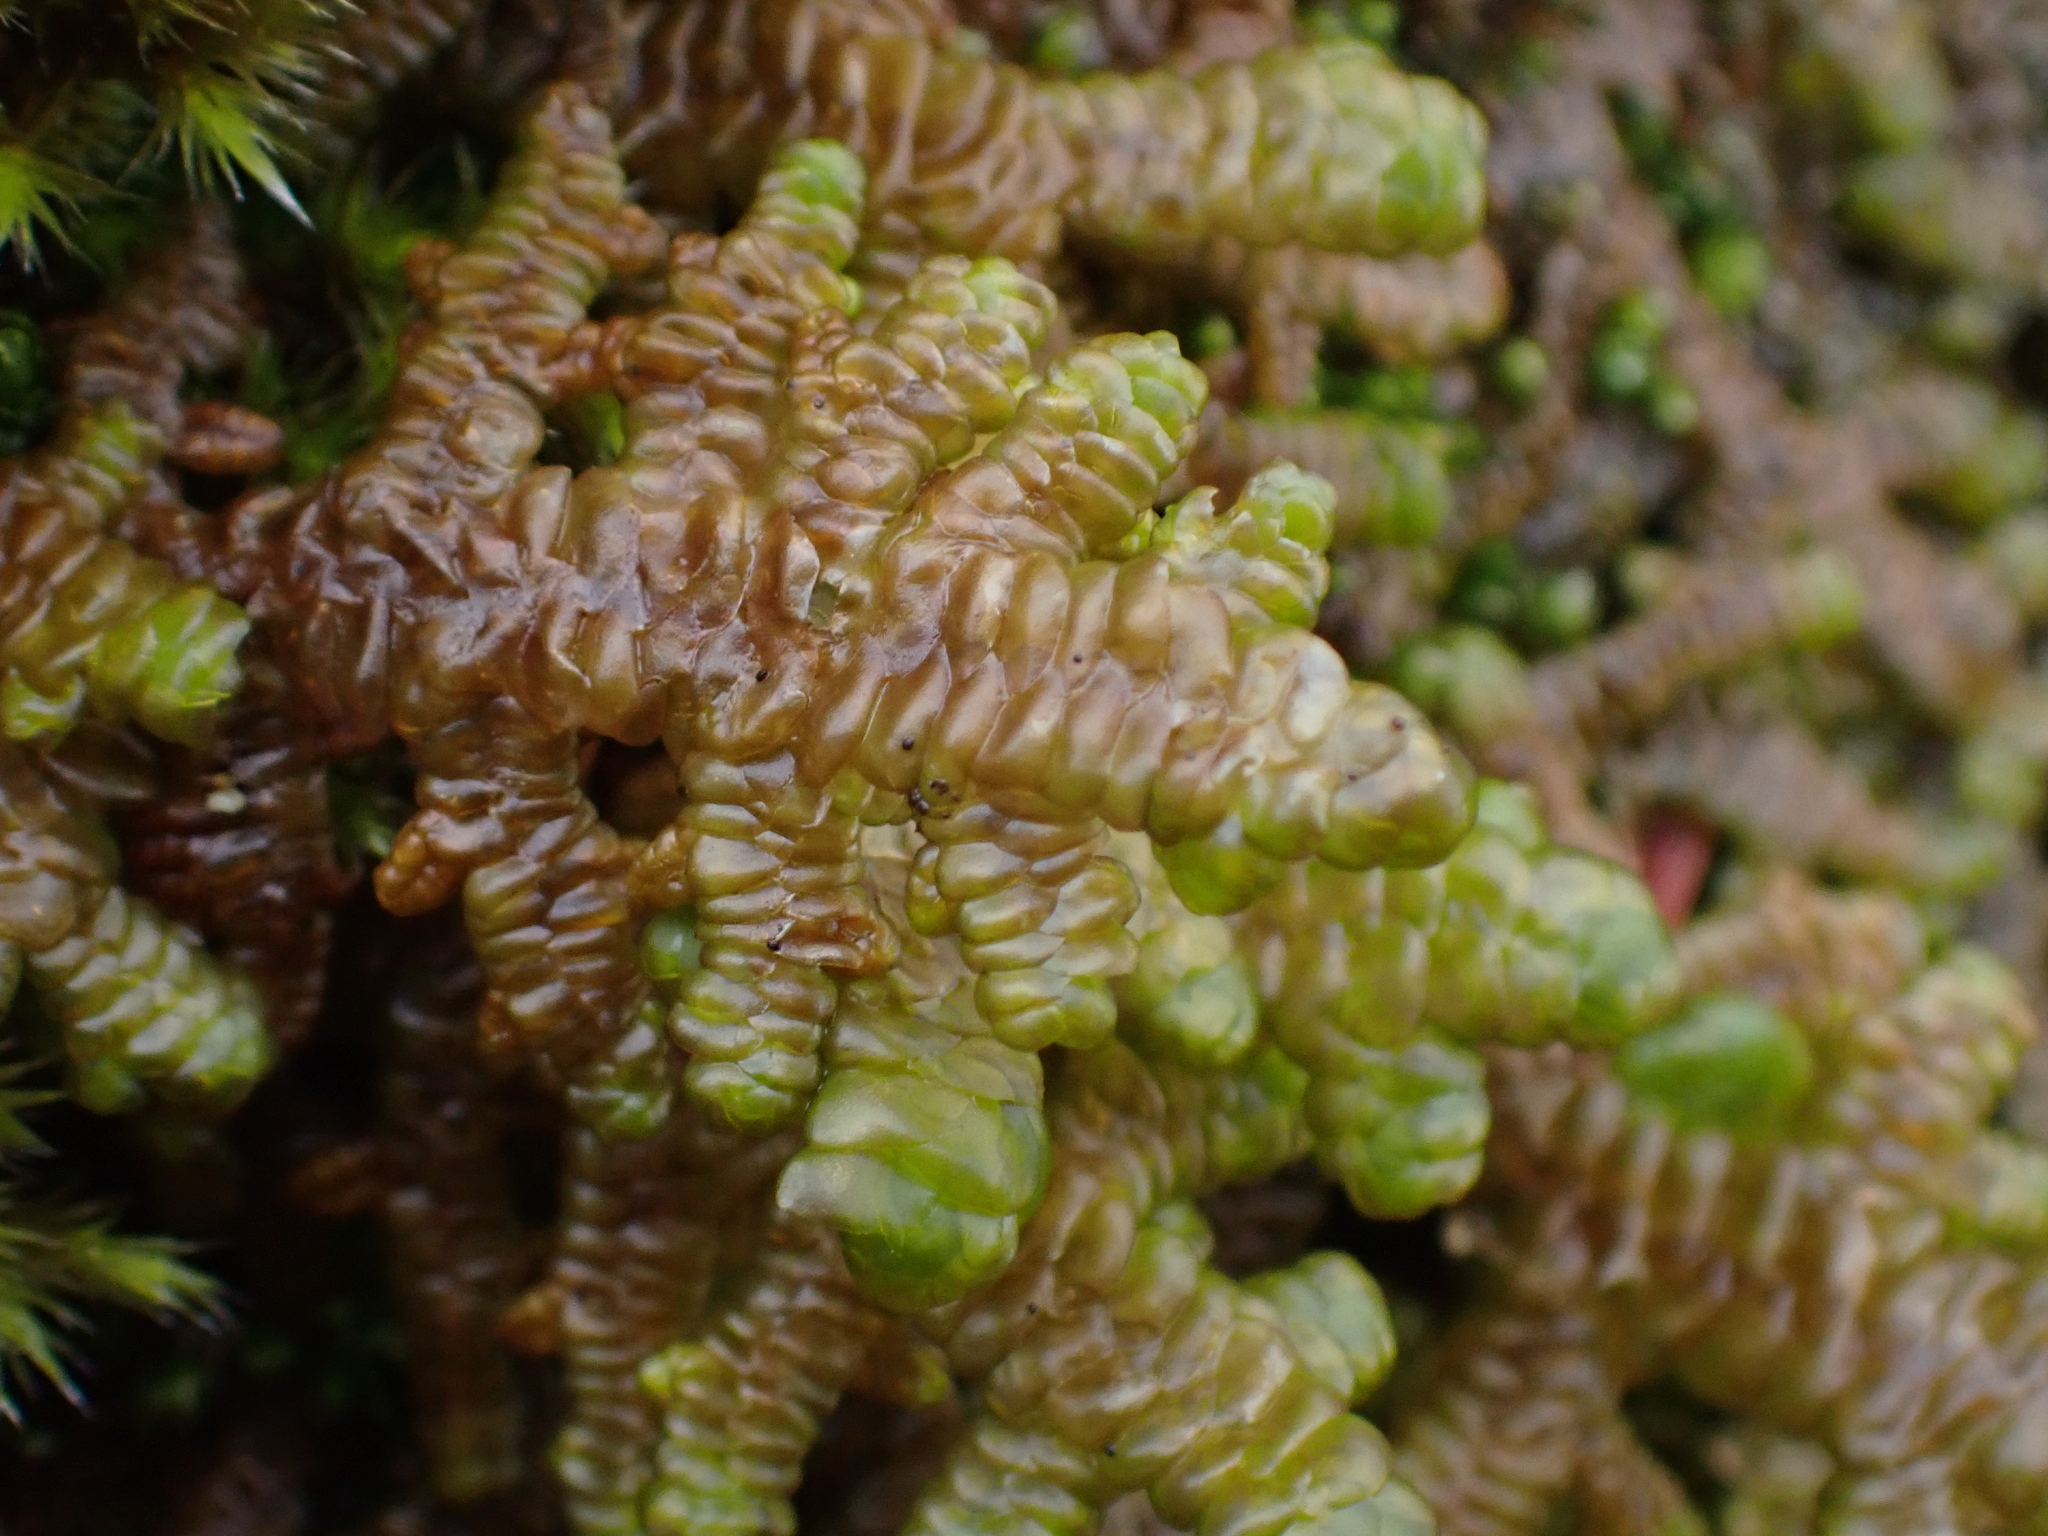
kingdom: Plantae
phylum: Marchantiophyta
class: Jungermanniopsida
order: Porellales
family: Porellaceae
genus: Porella
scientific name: Porella navicularis
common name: Tree ruffle liverwort
